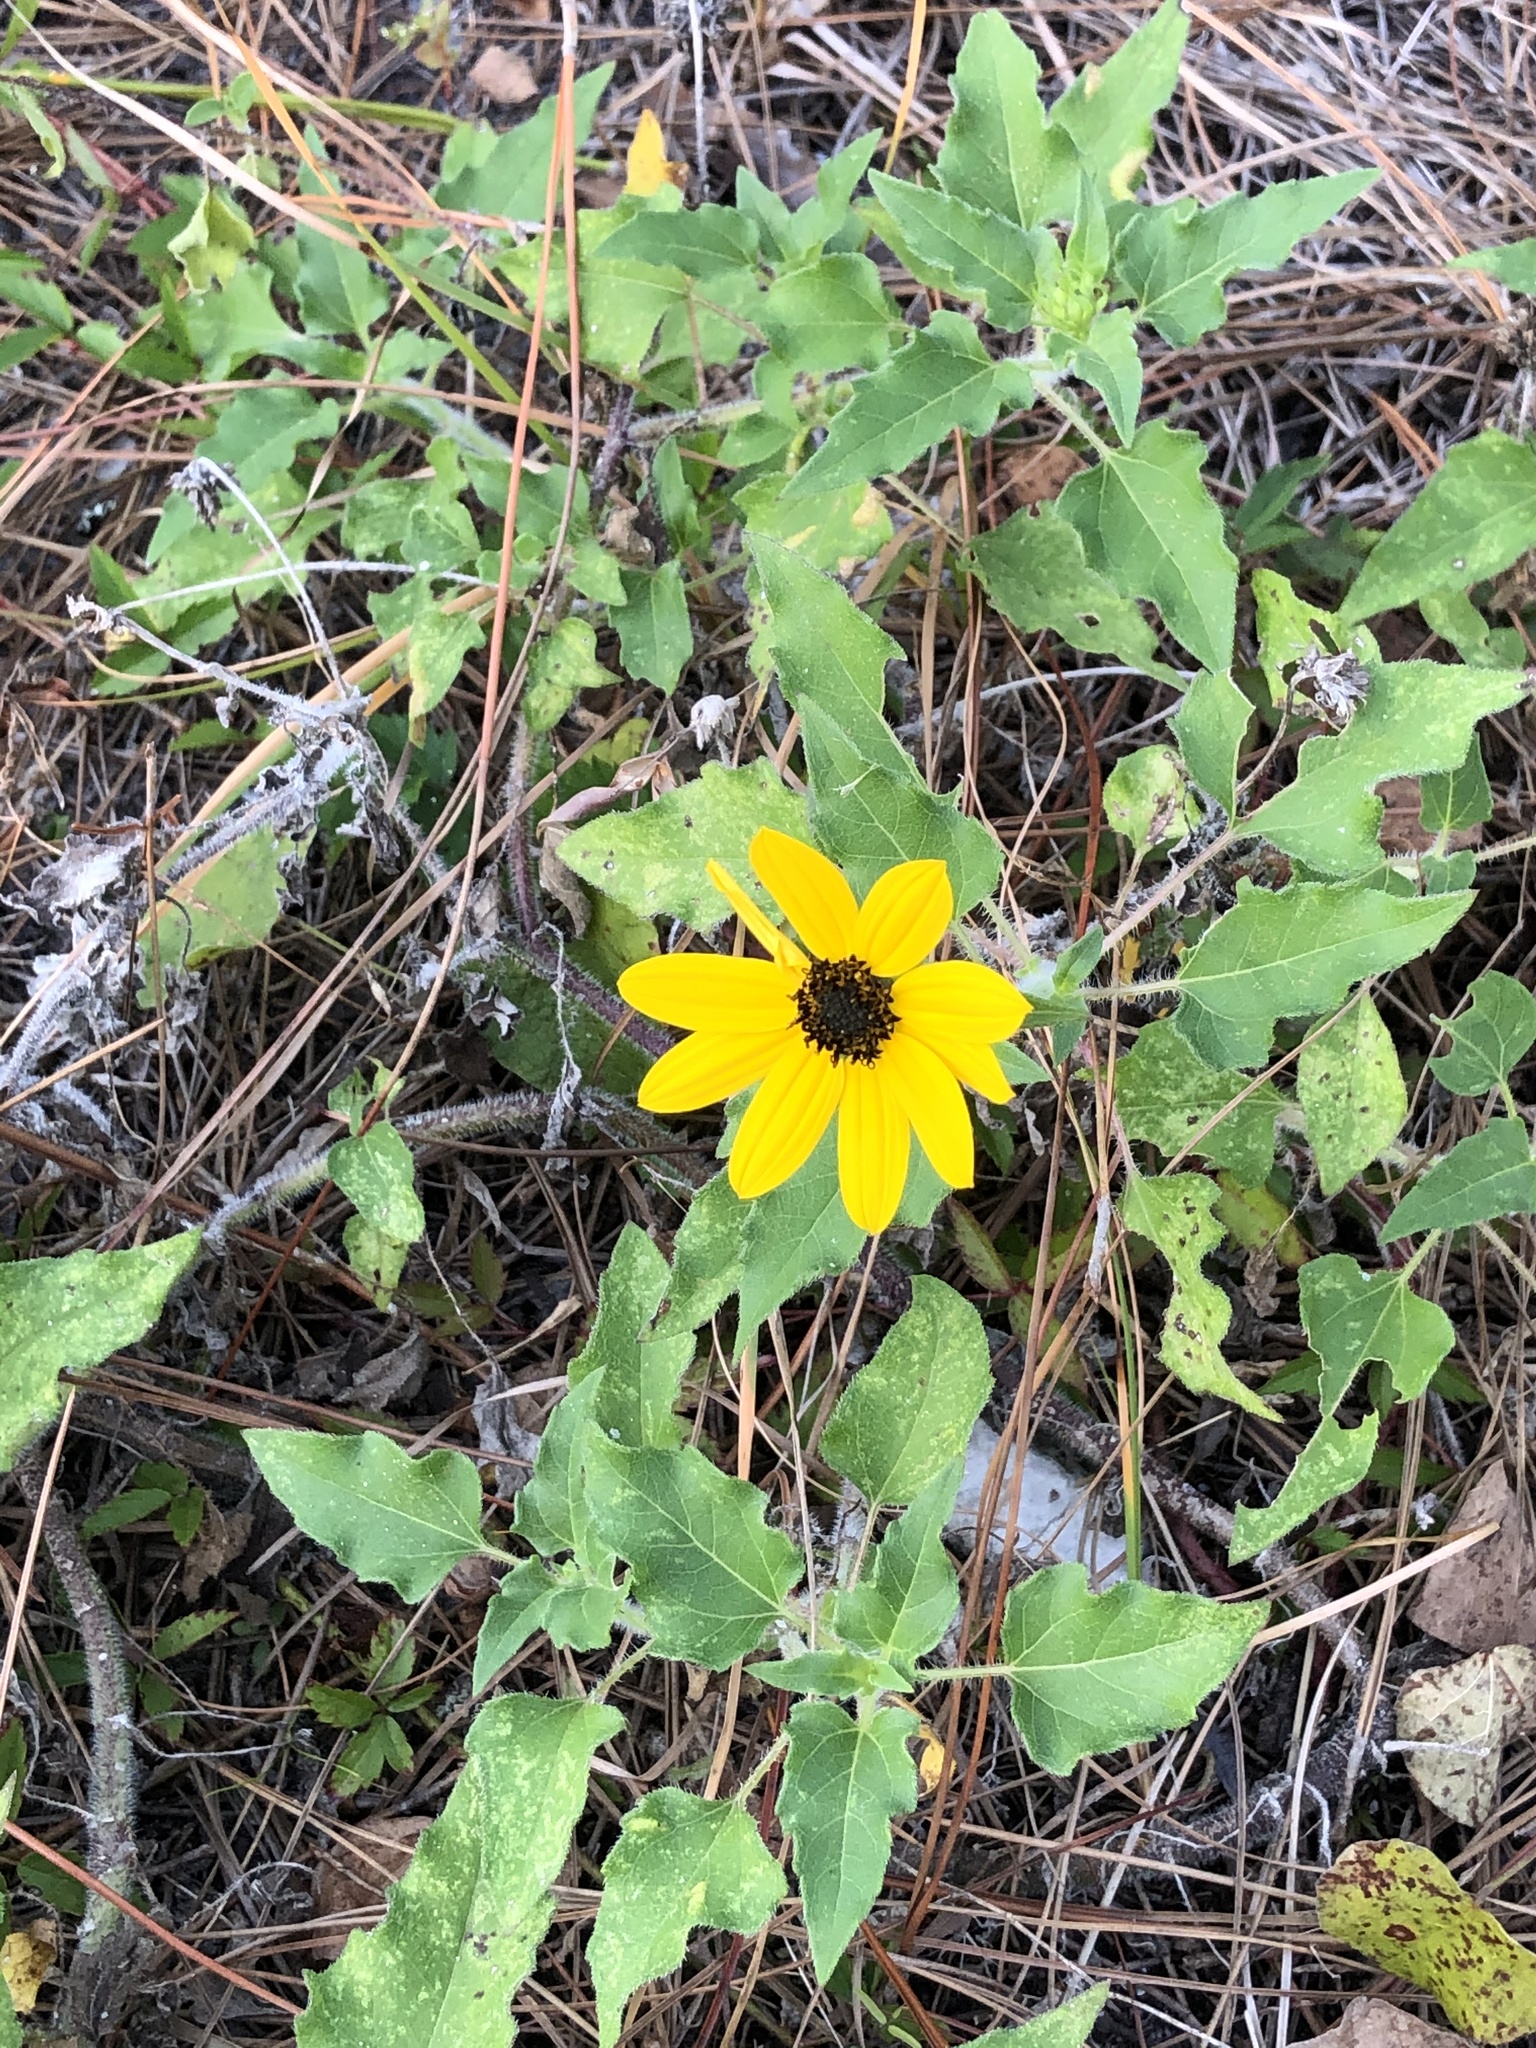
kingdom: Plantae
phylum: Tracheophyta
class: Magnoliopsida
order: Asterales
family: Asteraceae
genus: Helianthus
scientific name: Helianthus debilis
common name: Weak sunflower
